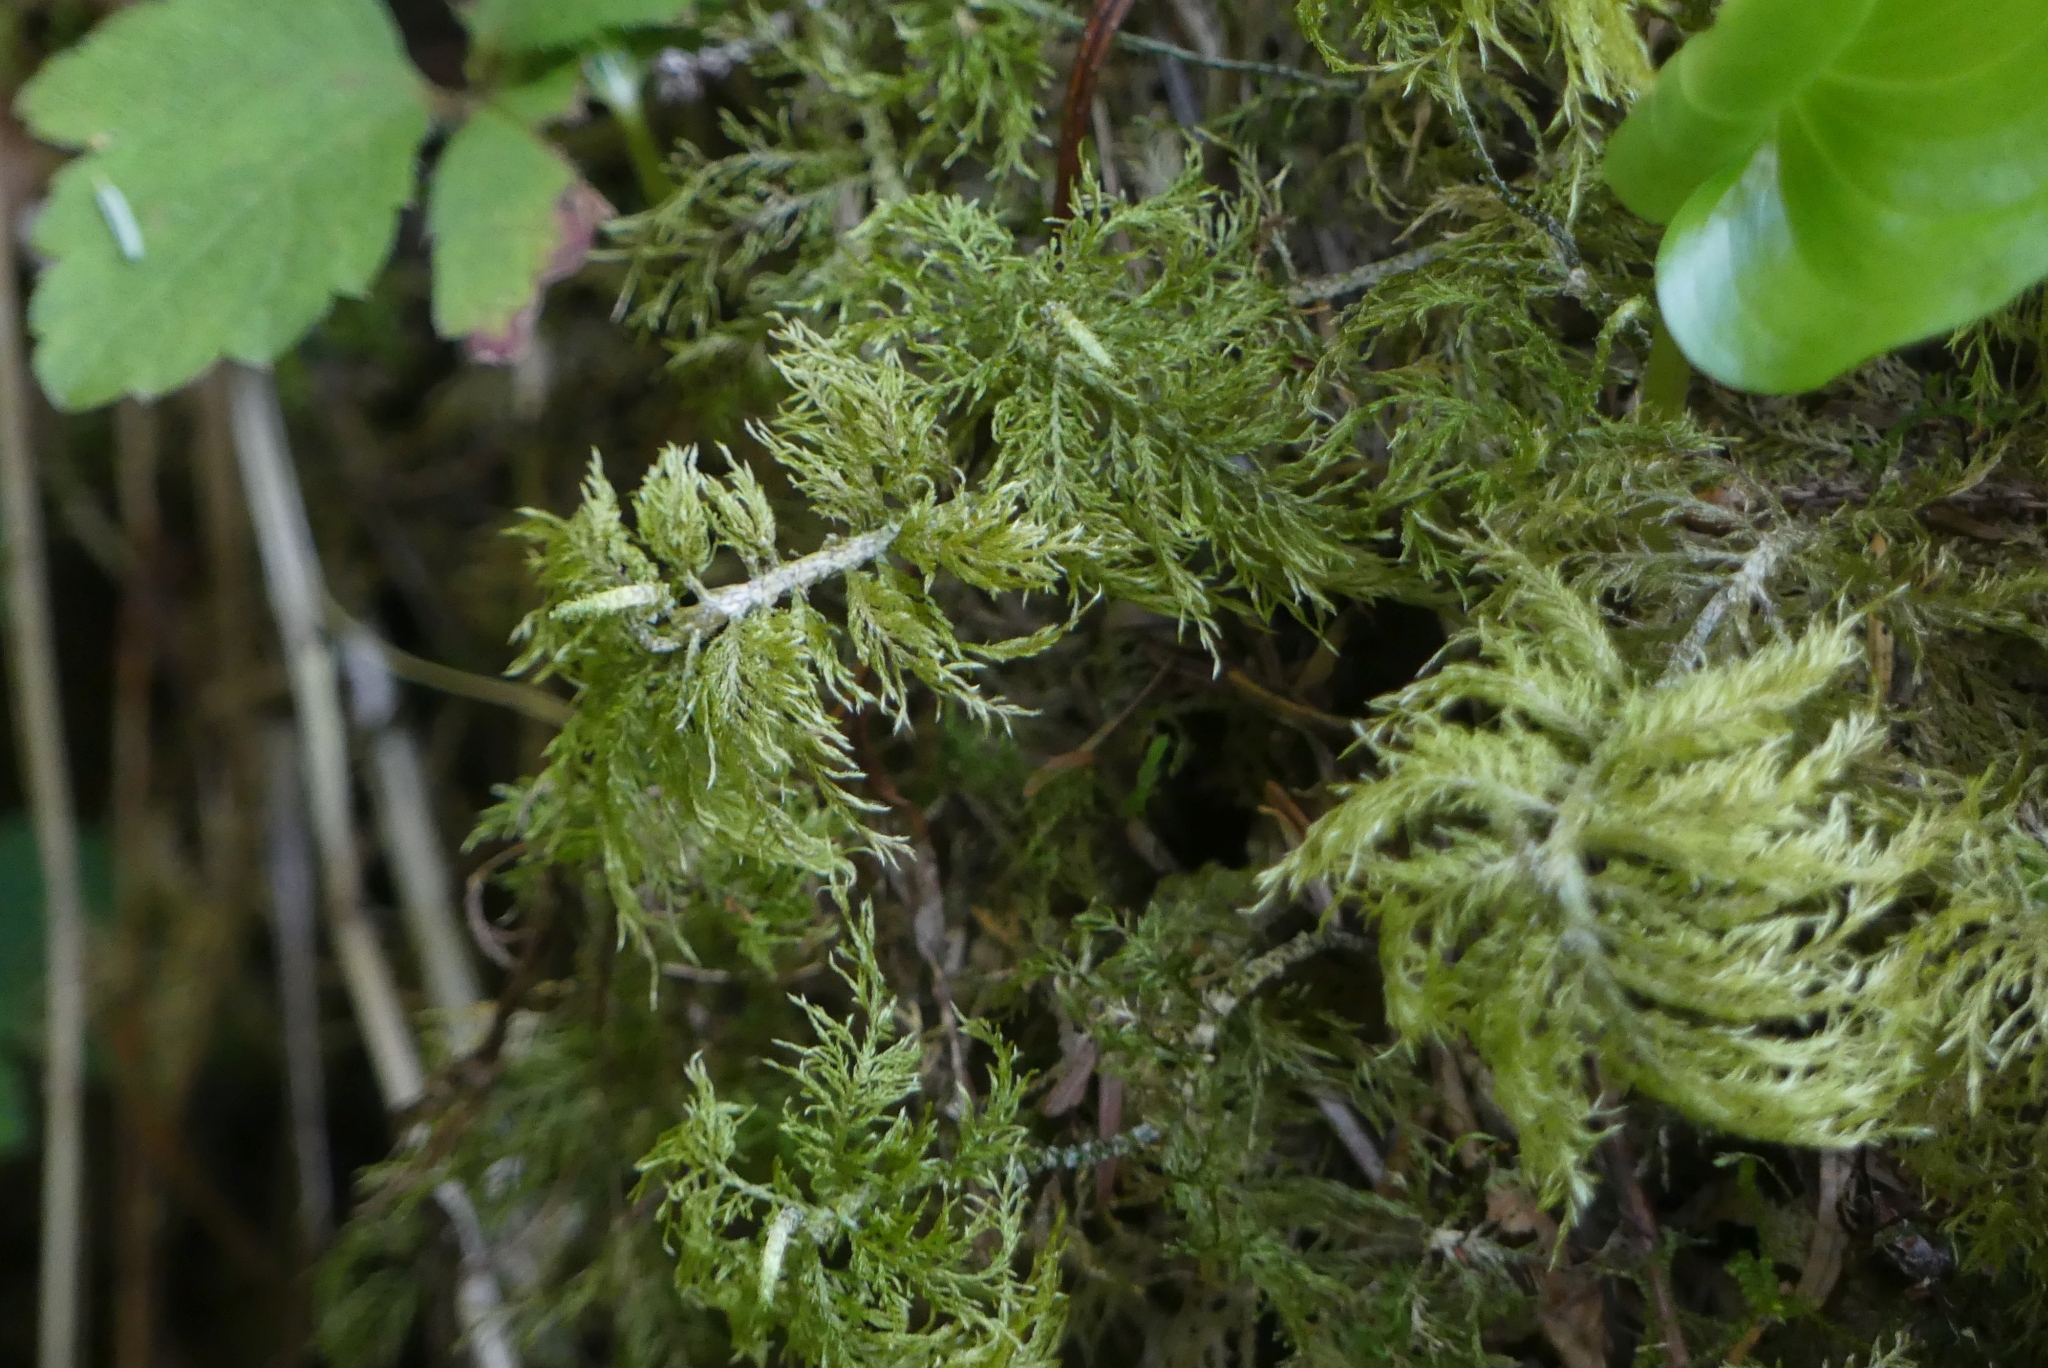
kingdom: Plantae
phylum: Bryophyta
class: Bryopsida
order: Hypnales
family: Hylocomiaceae
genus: Hylocomium
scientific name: Hylocomium splendens
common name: Stairstep moss
